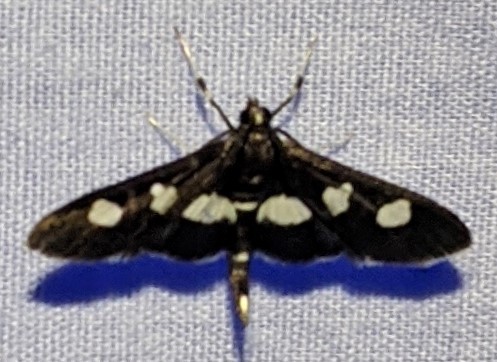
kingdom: Animalia
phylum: Arthropoda
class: Insecta
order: Lepidoptera
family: Crambidae
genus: Desmia
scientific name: Desmia
